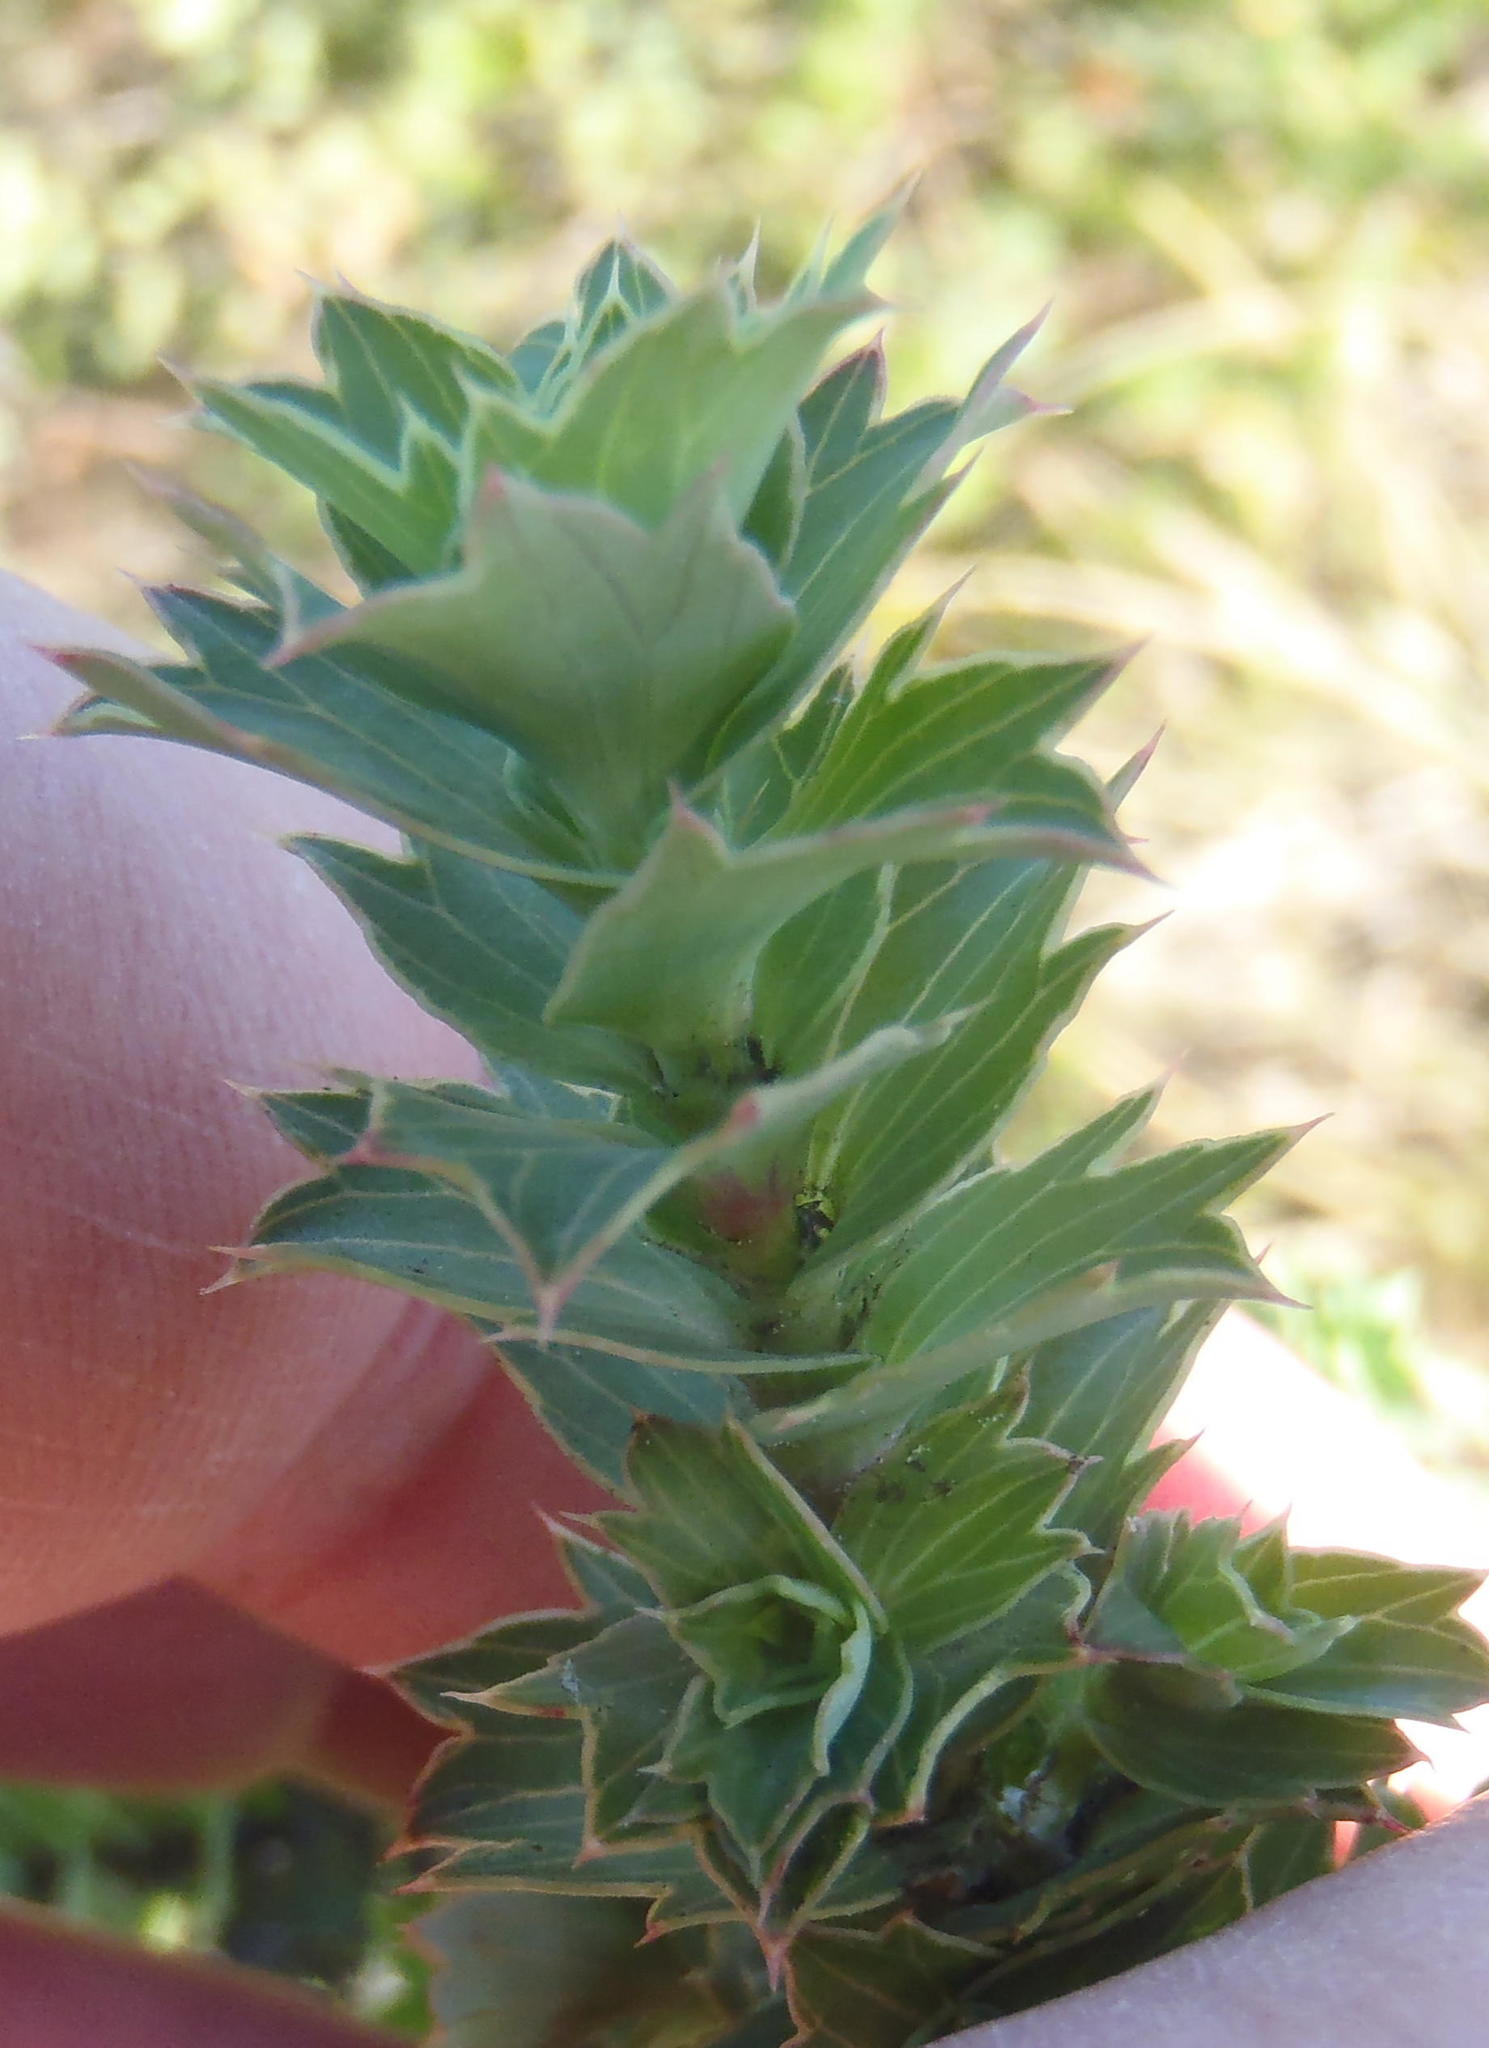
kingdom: Plantae
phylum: Tracheophyta
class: Magnoliopsida
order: Rosales
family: Rosaceae
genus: Cliffortia
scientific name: Cliffortia ilicifolia
